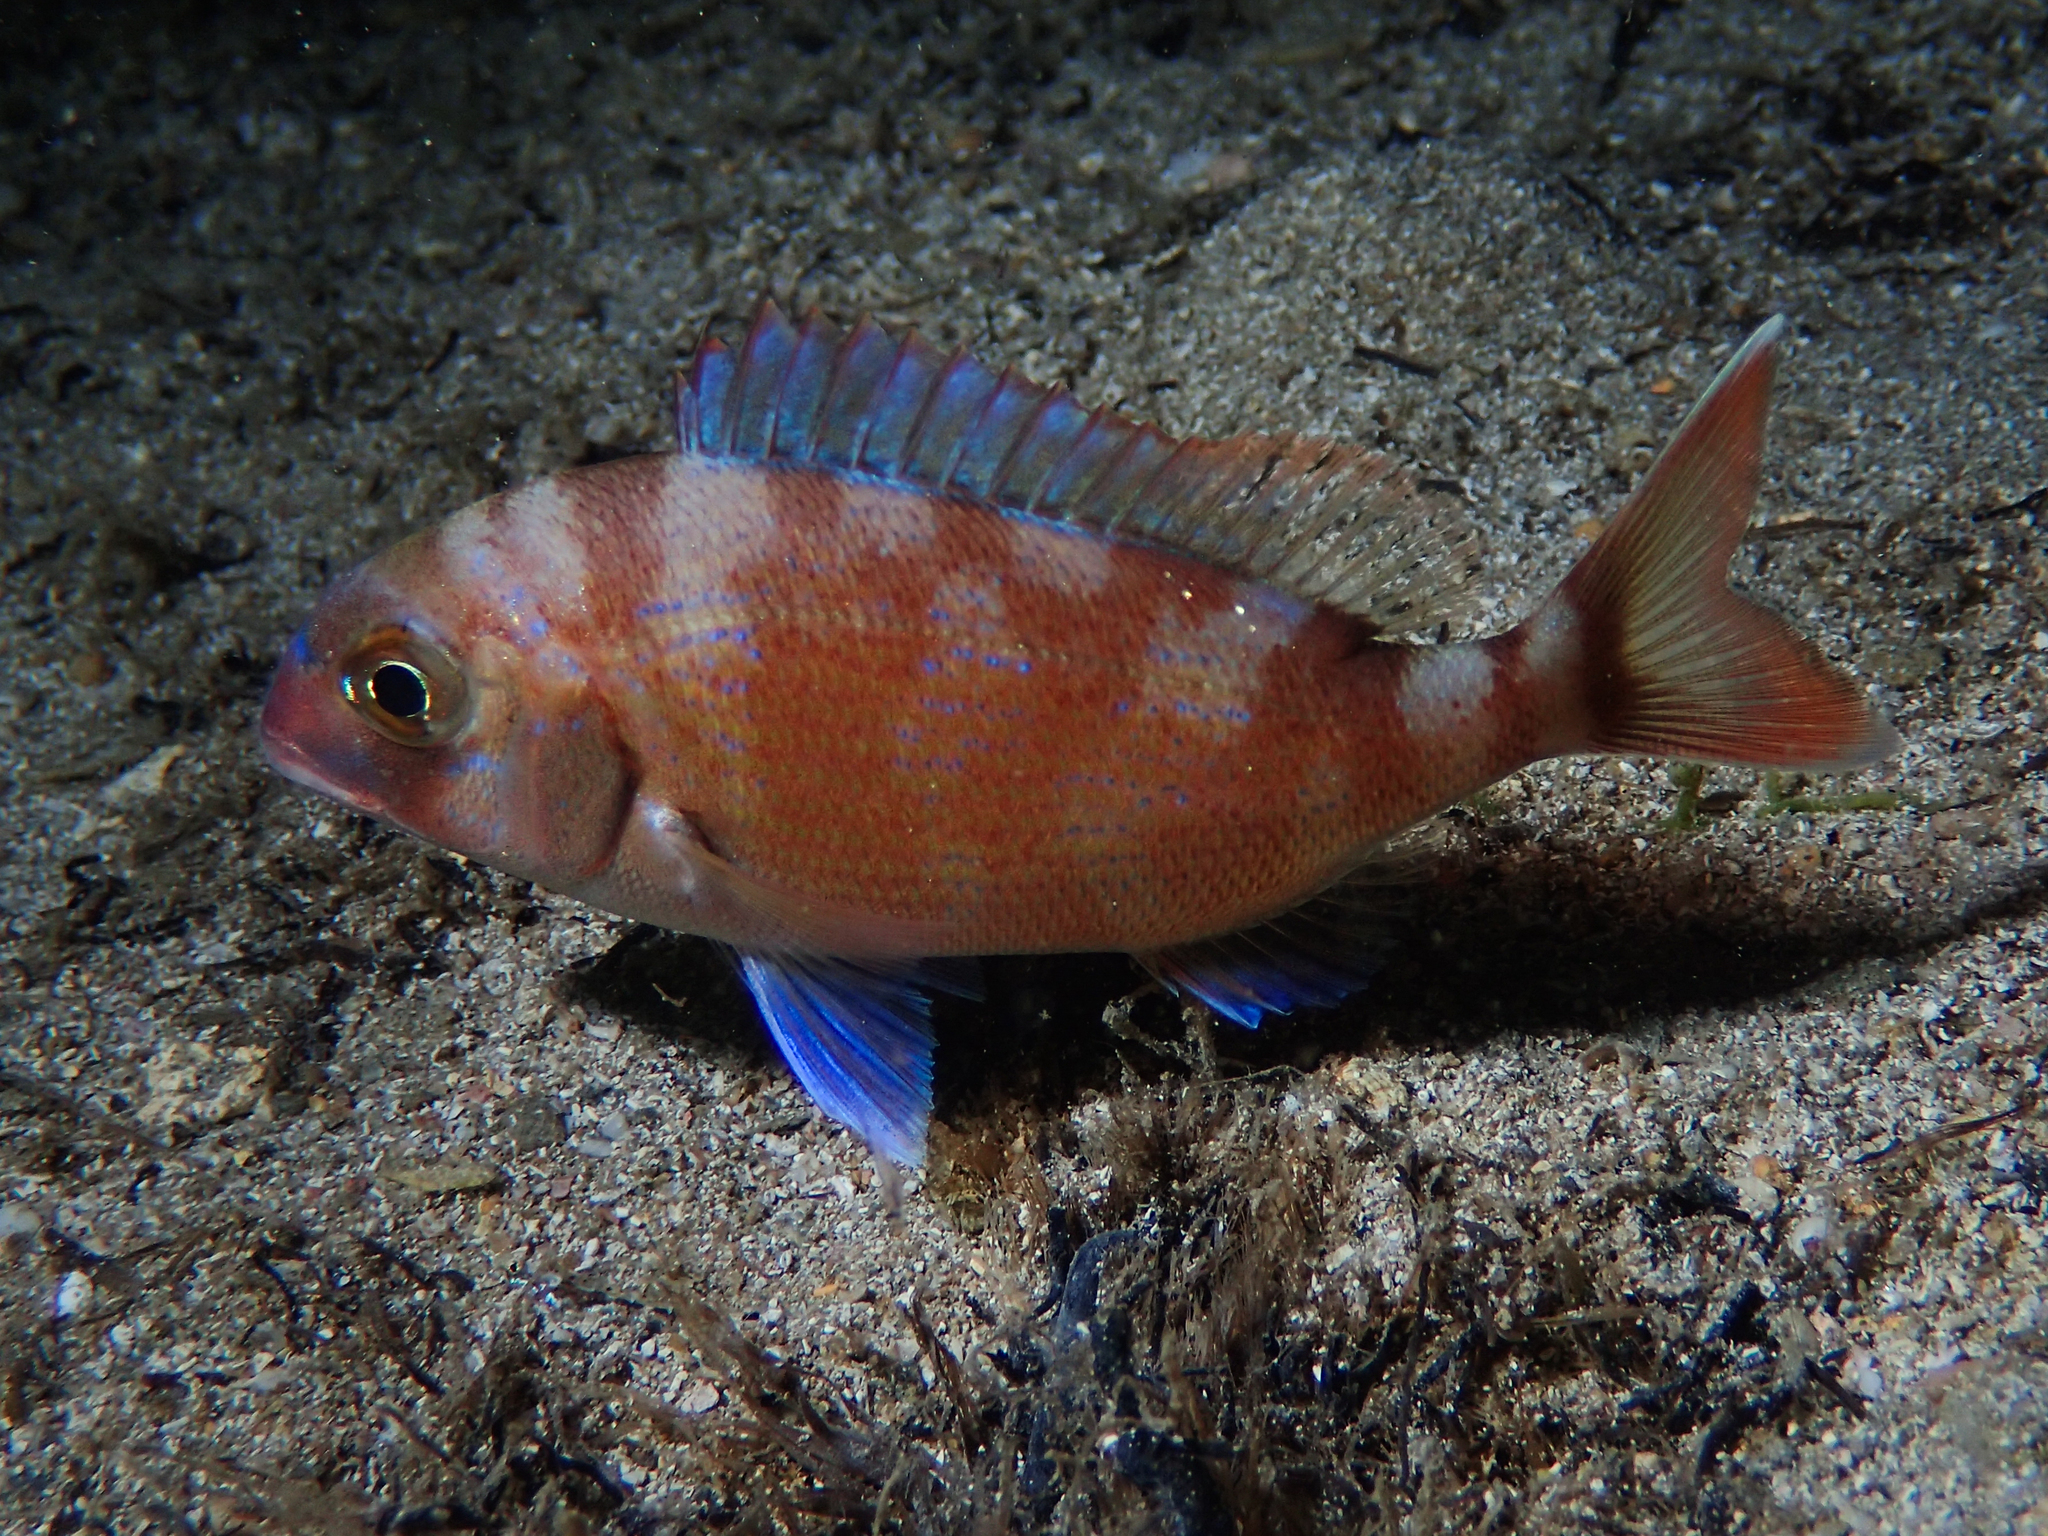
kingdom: Animalia
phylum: Chordata
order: Perciformes
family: Sparidae
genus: Pagrus
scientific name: Pagrus pagrus
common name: Red porgy
